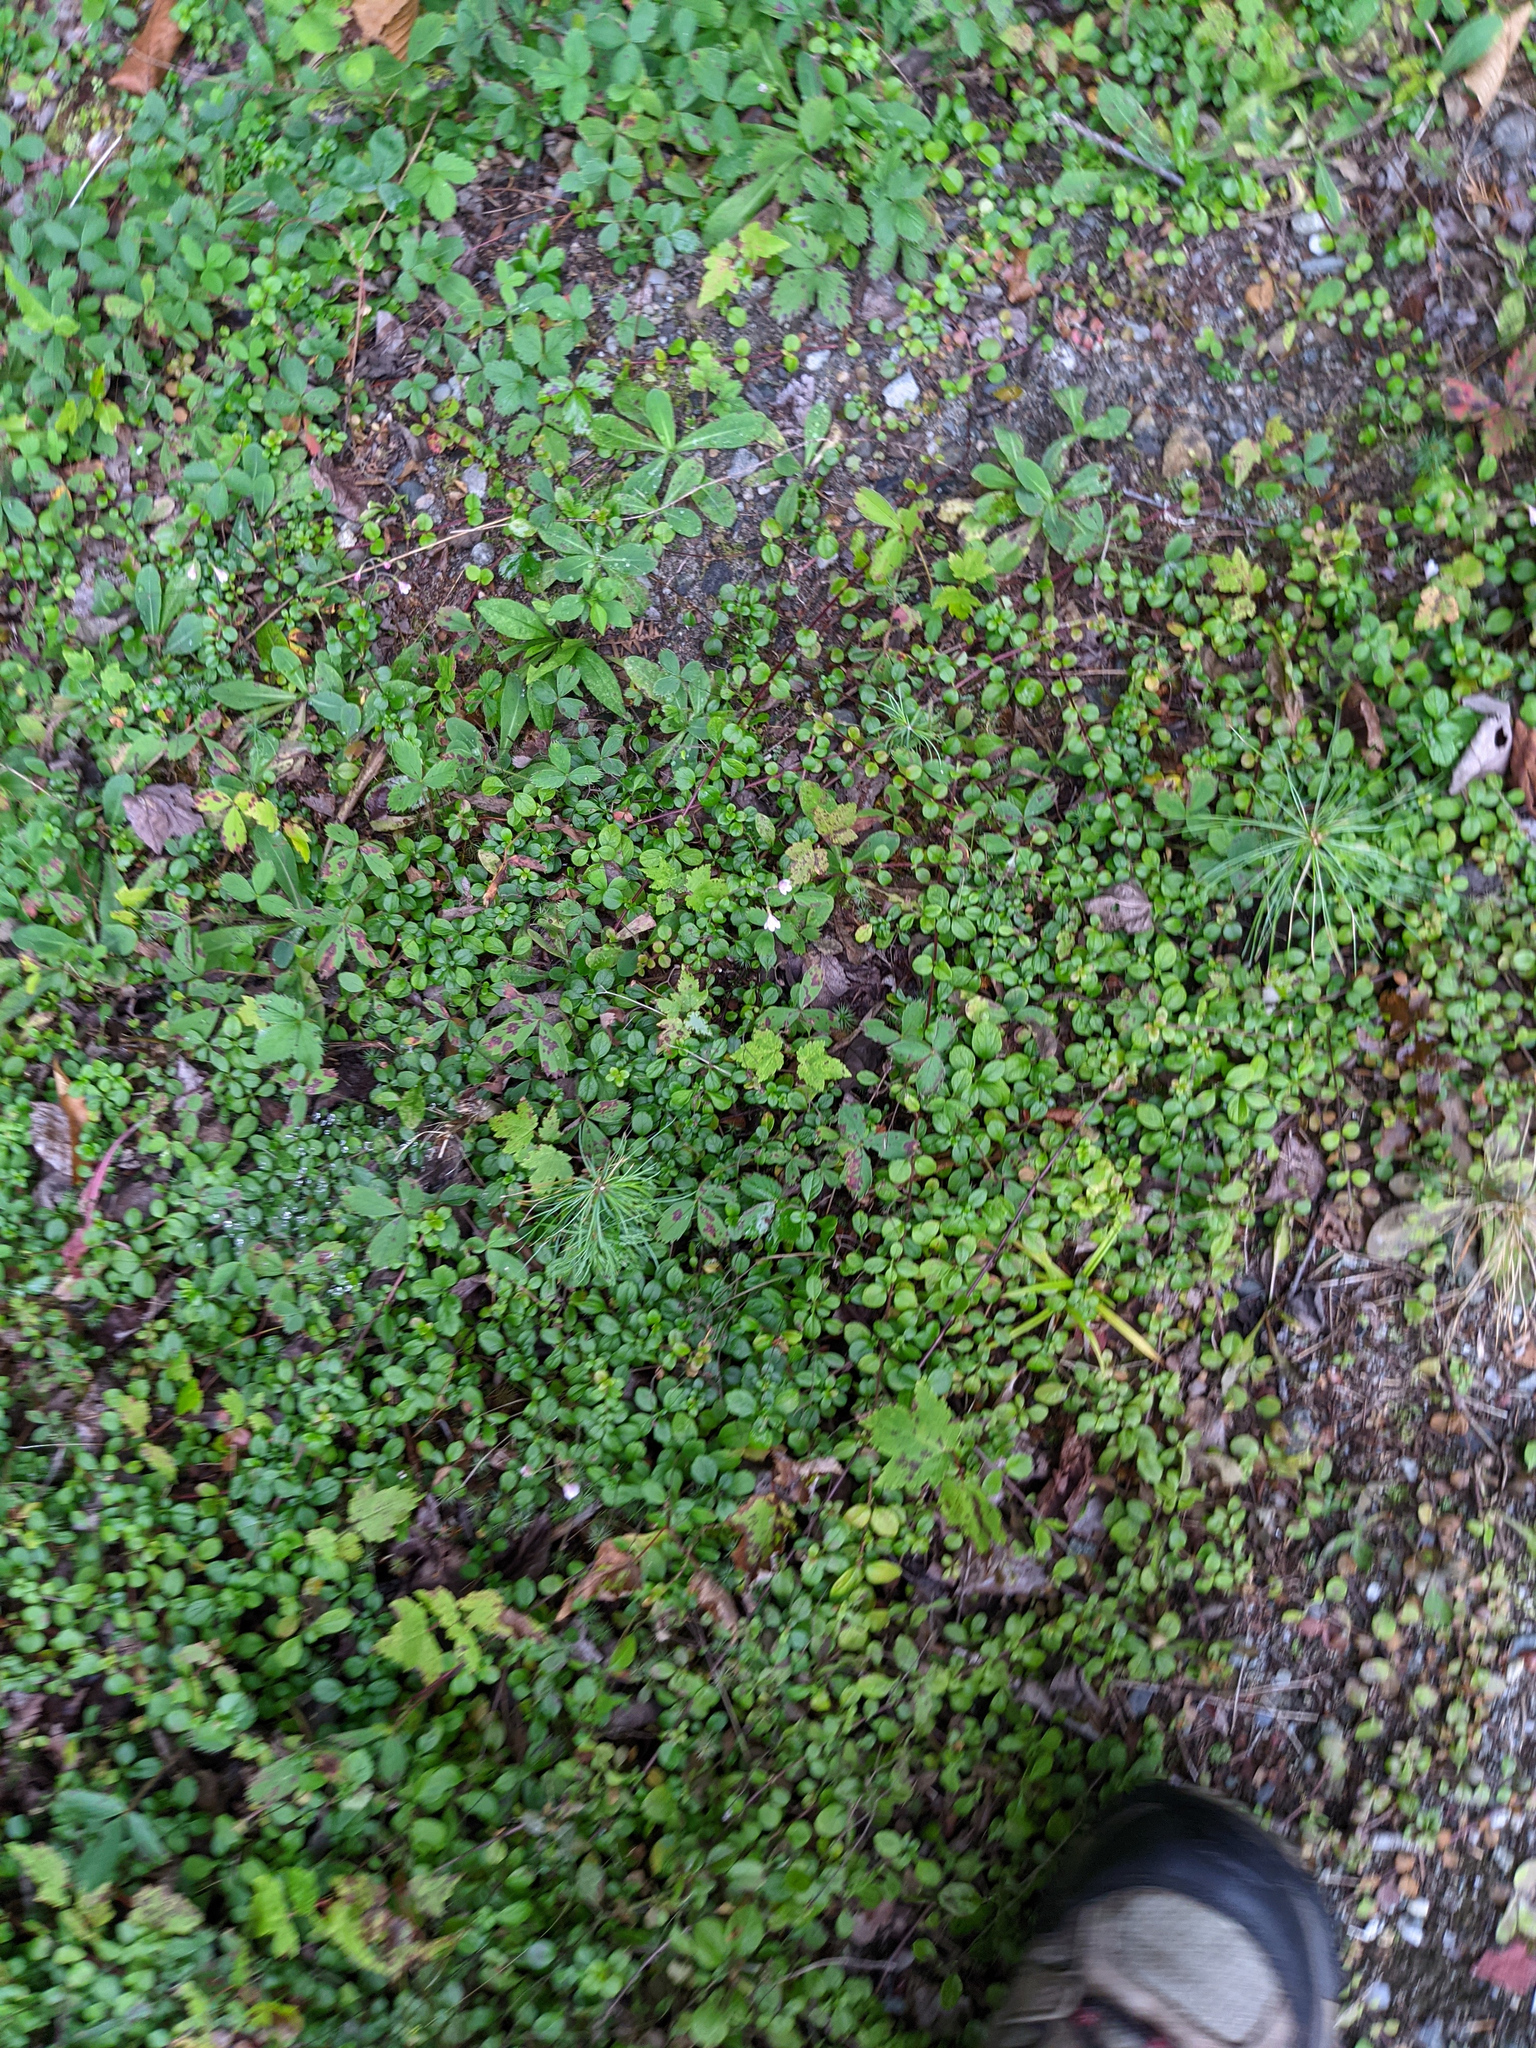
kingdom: Plantae
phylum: Tracheophyta
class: Magnoliopsida
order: Dipsacales
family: Caprifoliaceae
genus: Linnaea
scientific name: Linnaea borealis
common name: Twinflower
